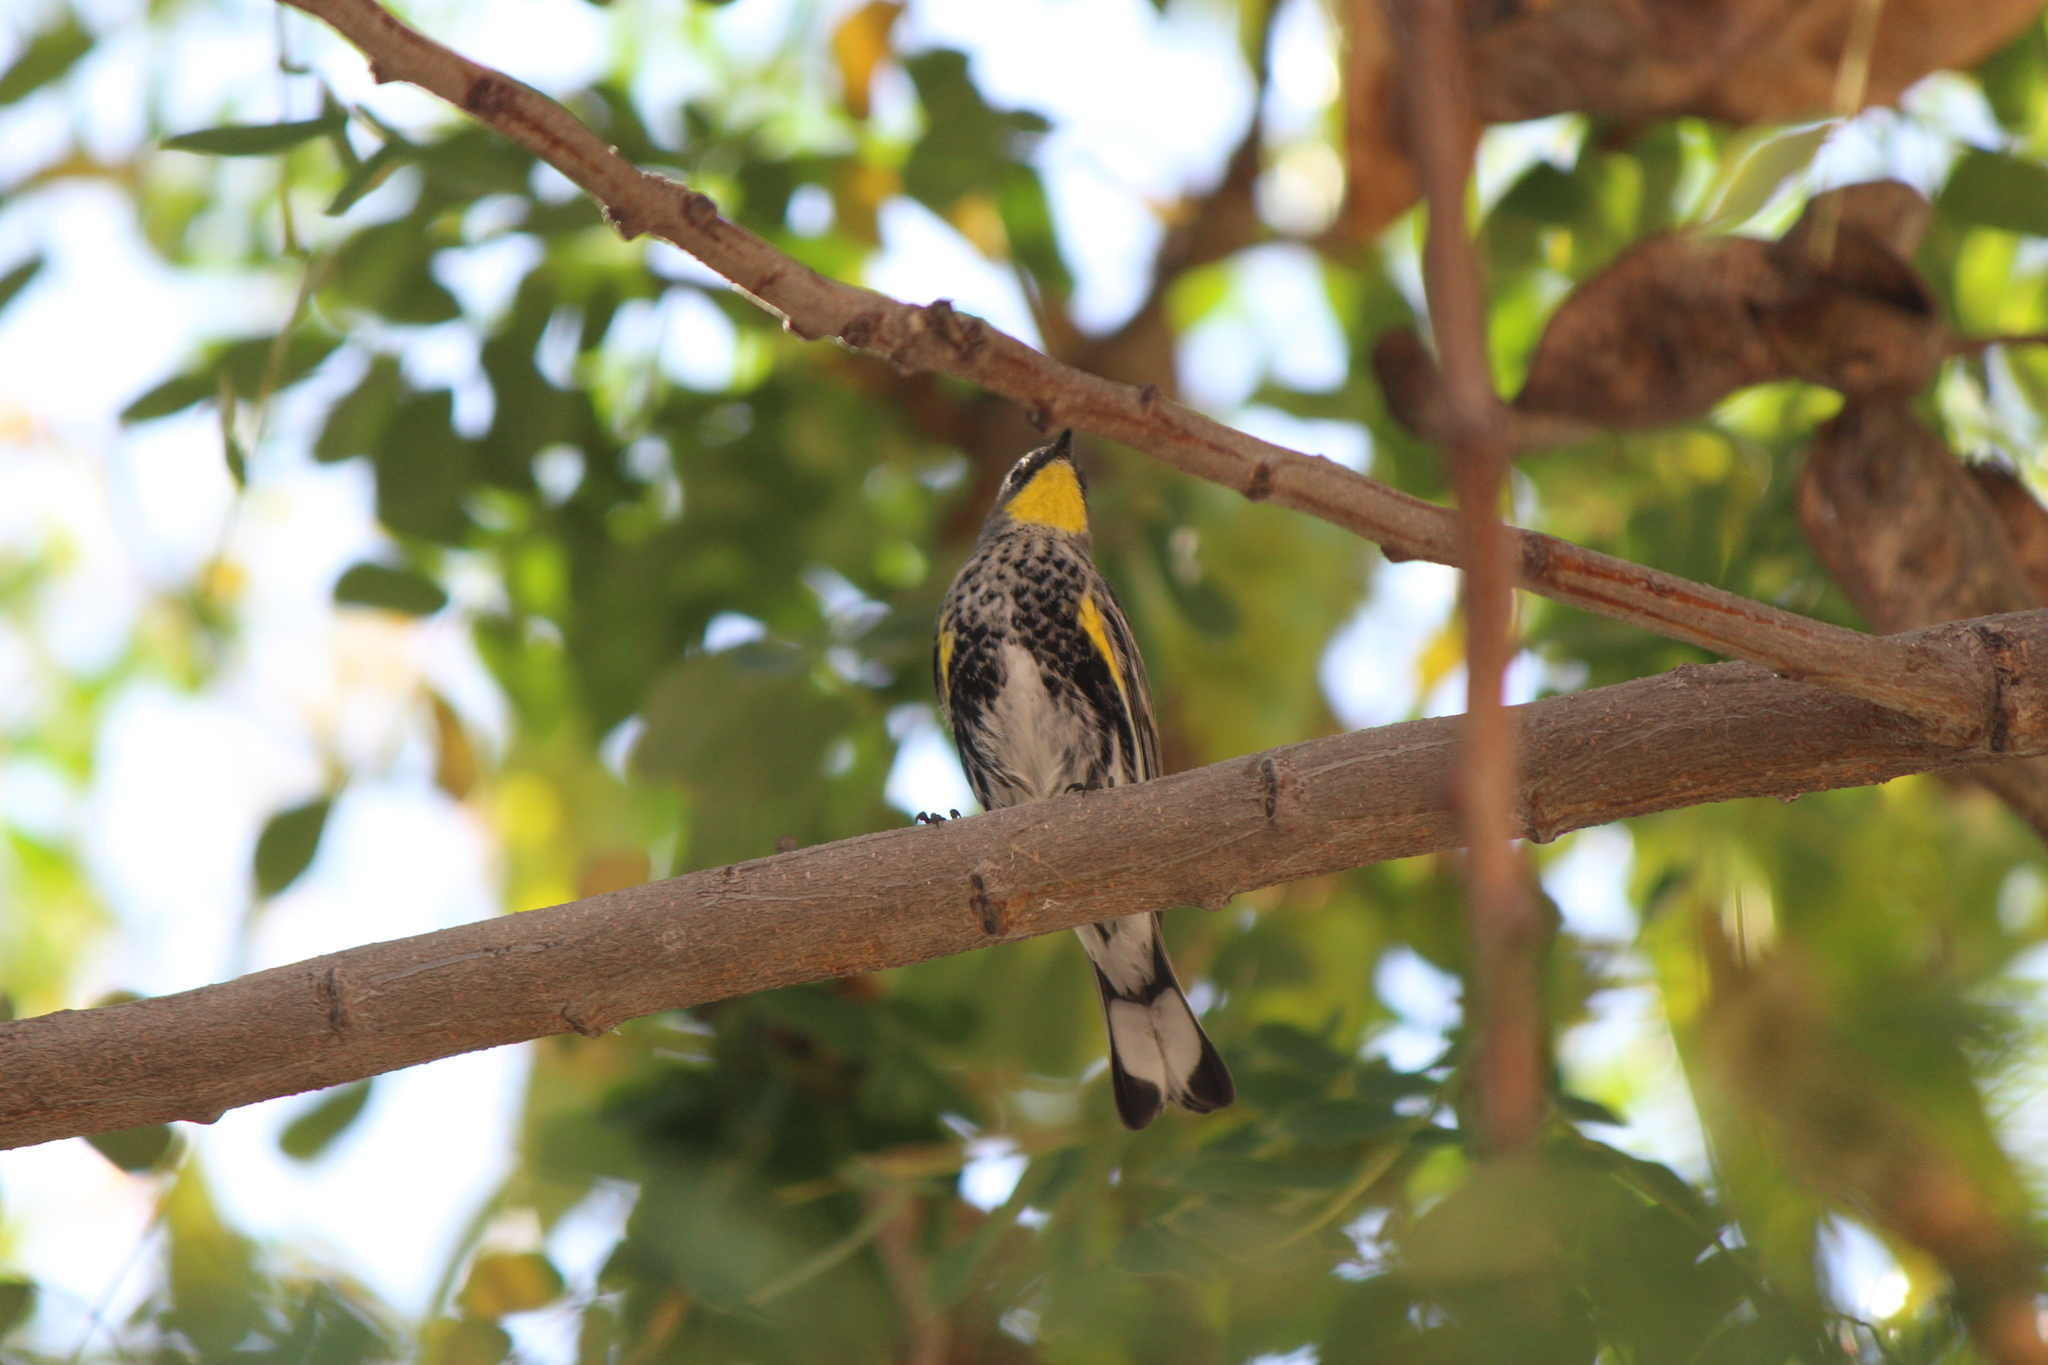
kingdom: Animalia
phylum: Chordata
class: Aves
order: Passeriformes
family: Parulidae
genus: Setophaga
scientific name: Setophaga coronata
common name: Myrtle warbler
